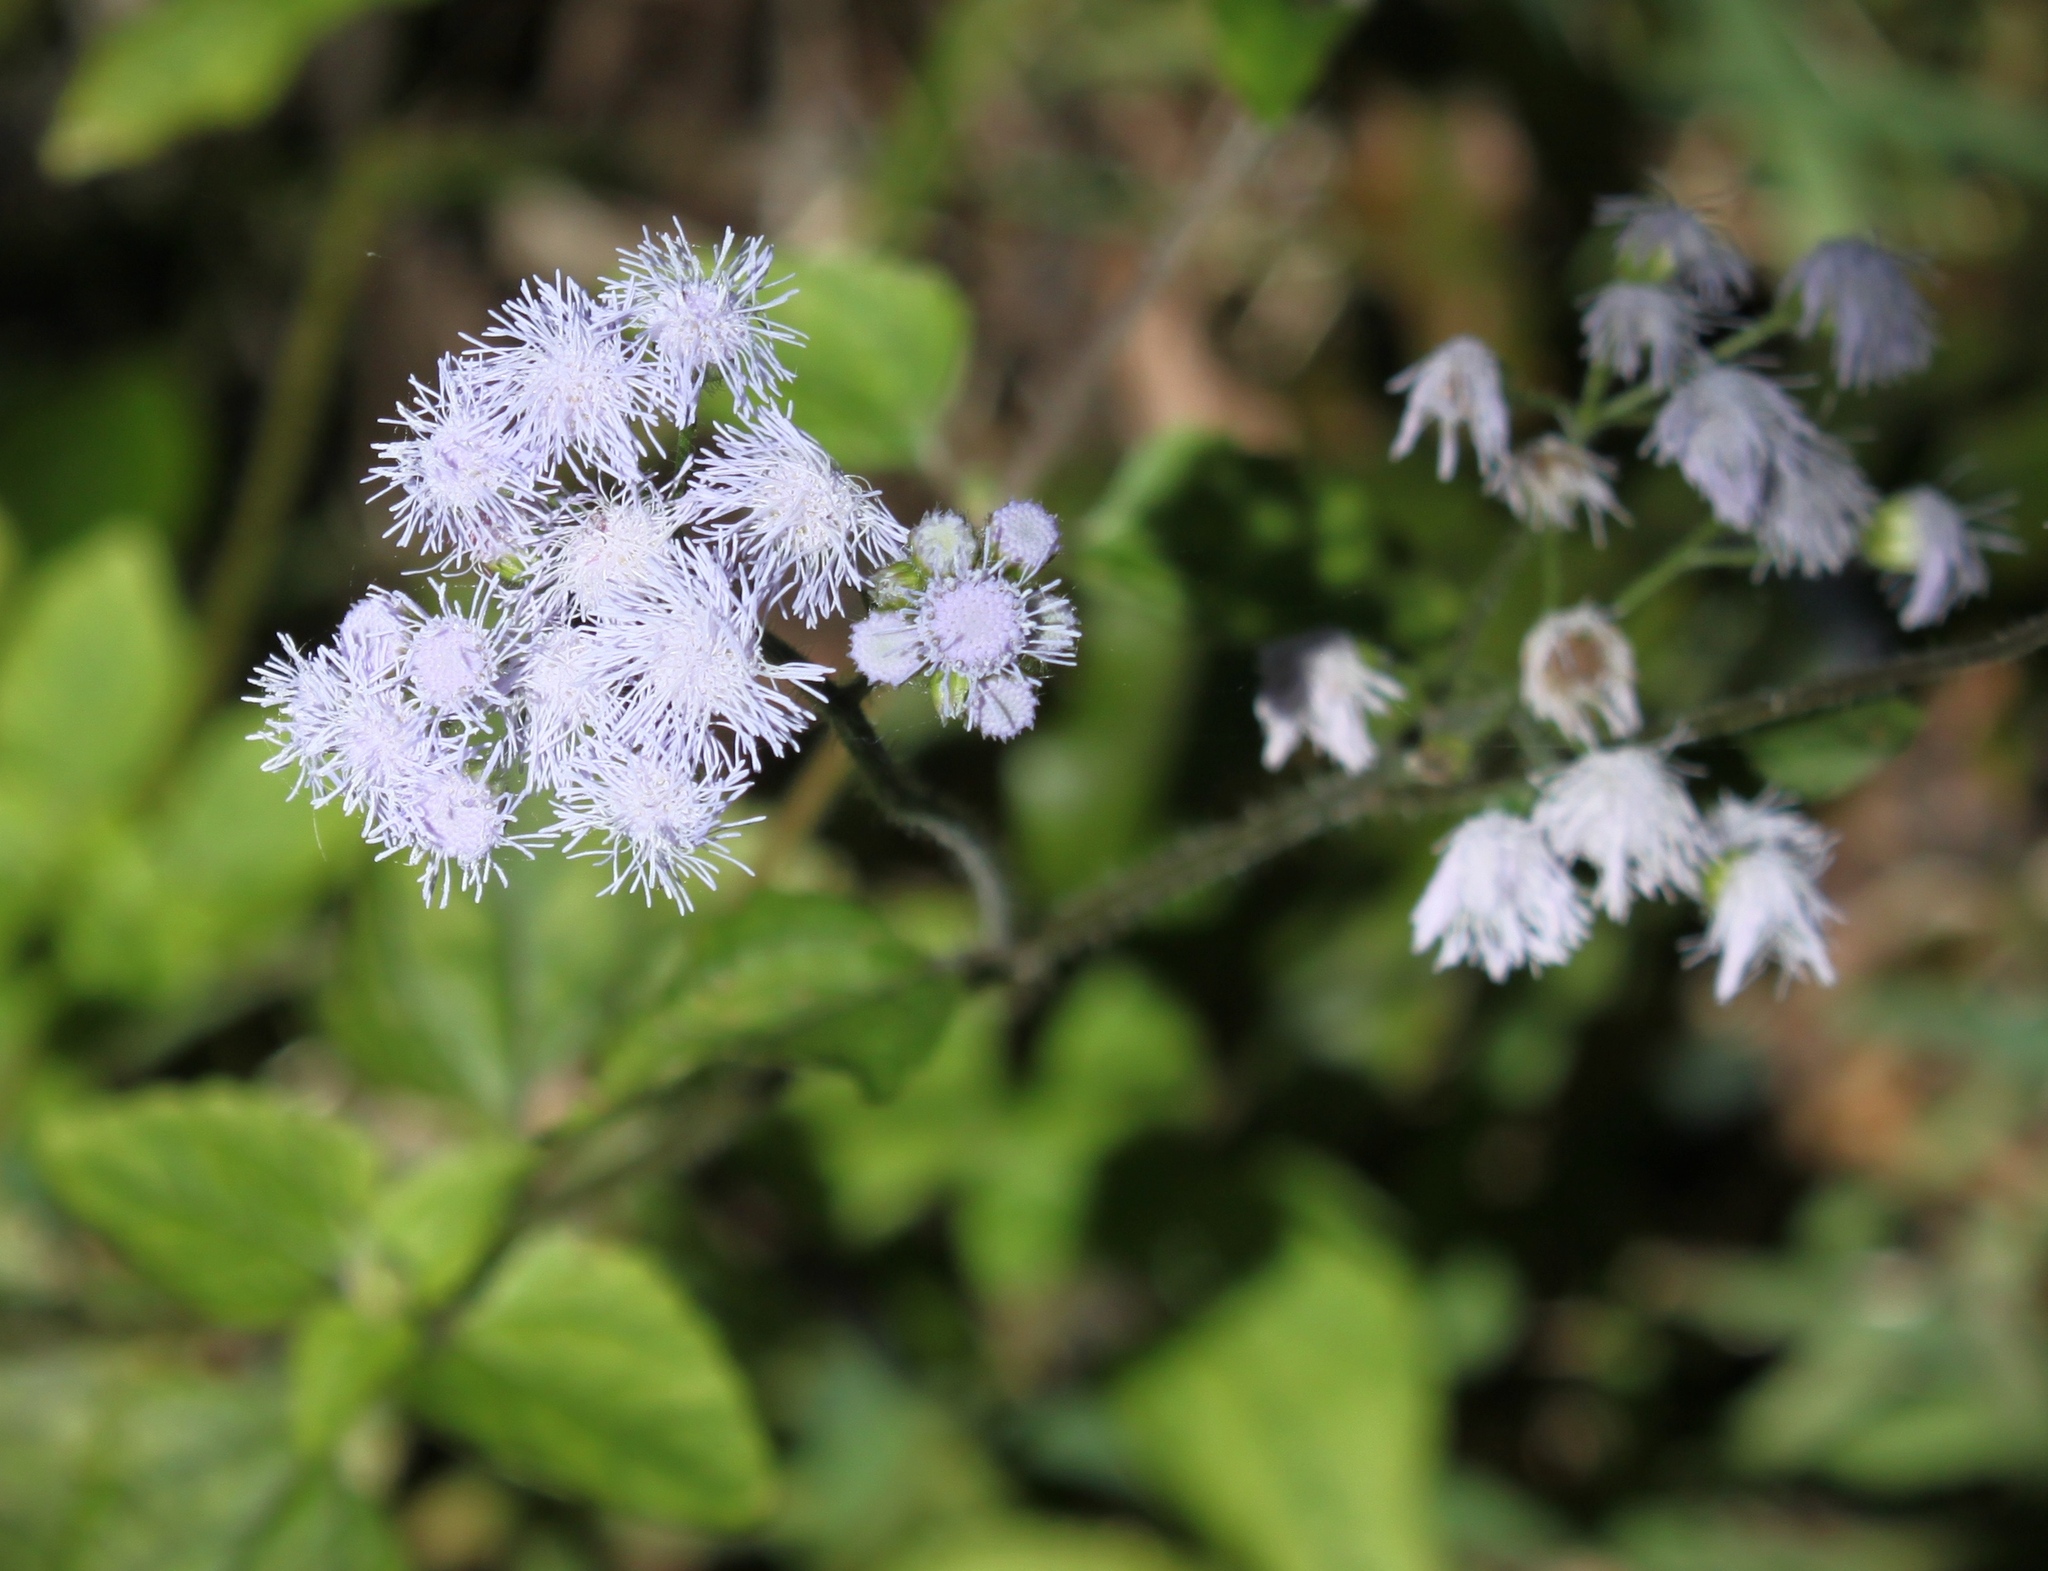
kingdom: Plantae
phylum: Tracheophyta
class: Magnoliopsida
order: Asterales
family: Asteraceae
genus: Conoclinium
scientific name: Conoclinium coelestinum
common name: Blue mistflower
